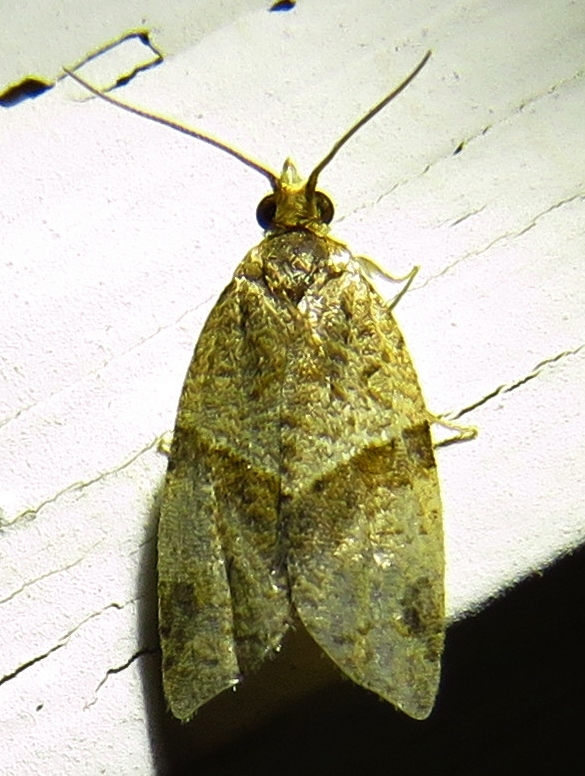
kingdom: Animalia
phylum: Arthropoda
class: Insecta
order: Lepidoptera
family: Tortricidae
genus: Clepsis
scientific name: Clepsis peritana
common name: Garden tortrix
